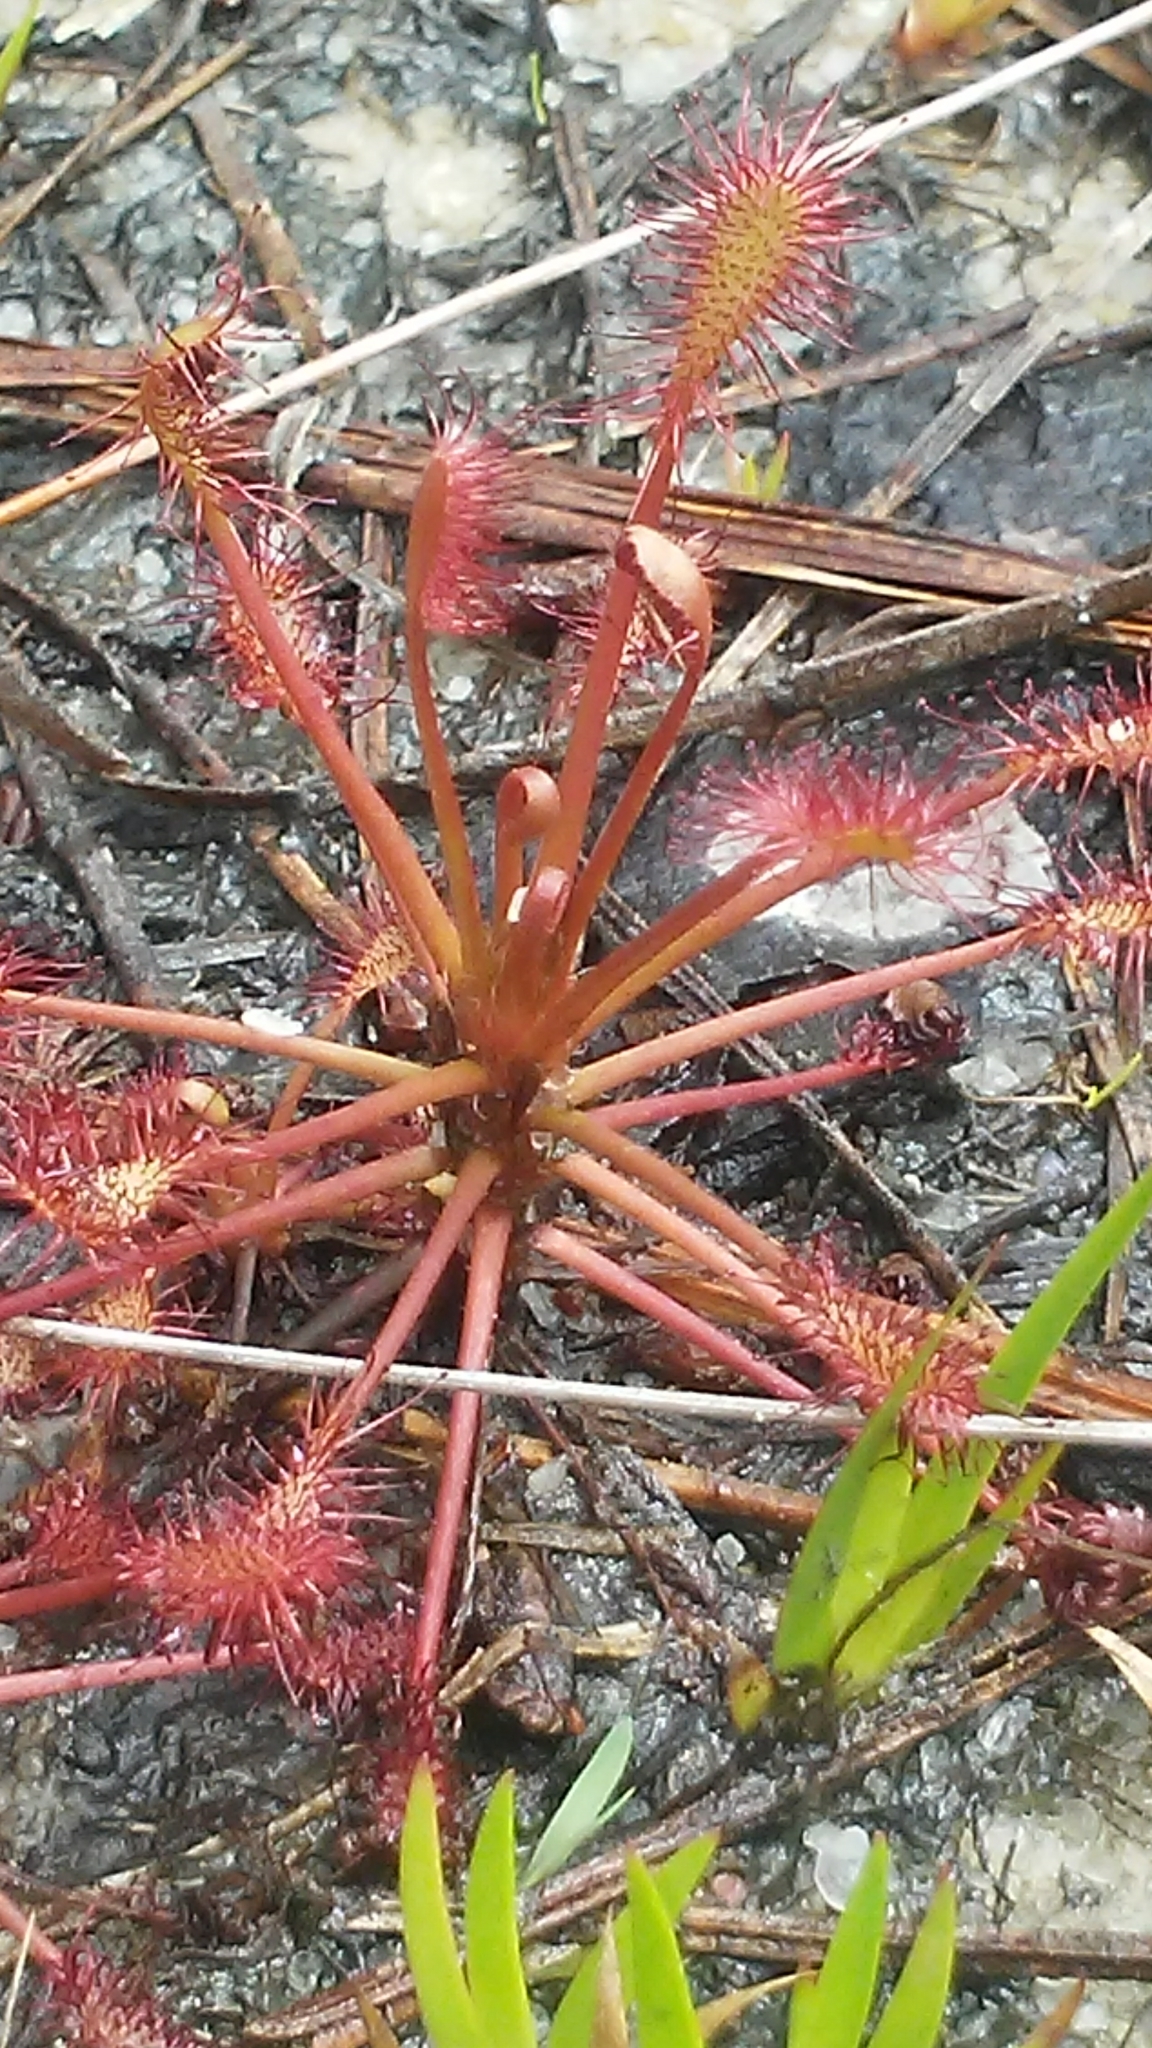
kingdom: Plantae
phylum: Tracheophyta
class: Magnoliopsida
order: Caryophyllales
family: Droseraceae
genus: Drosera
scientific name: Drosera intermedia
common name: Oblong-leaved sundew
